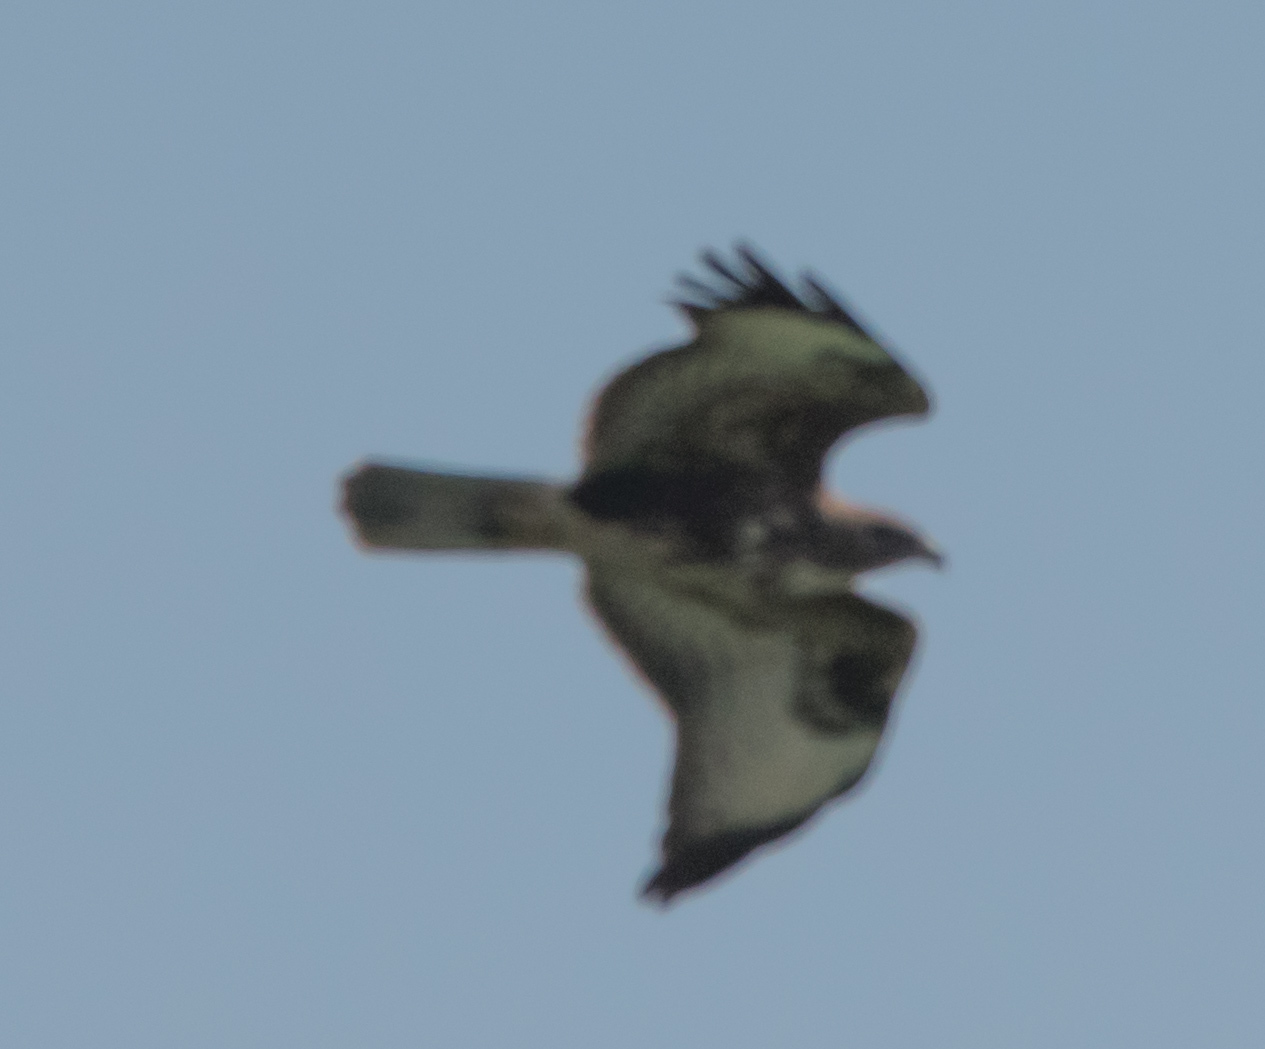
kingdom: Animalia
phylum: Chordata
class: Aves
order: Accipitriformes
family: Accipitridae
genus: Buteo
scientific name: Buteo buteo
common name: Common buzzard
